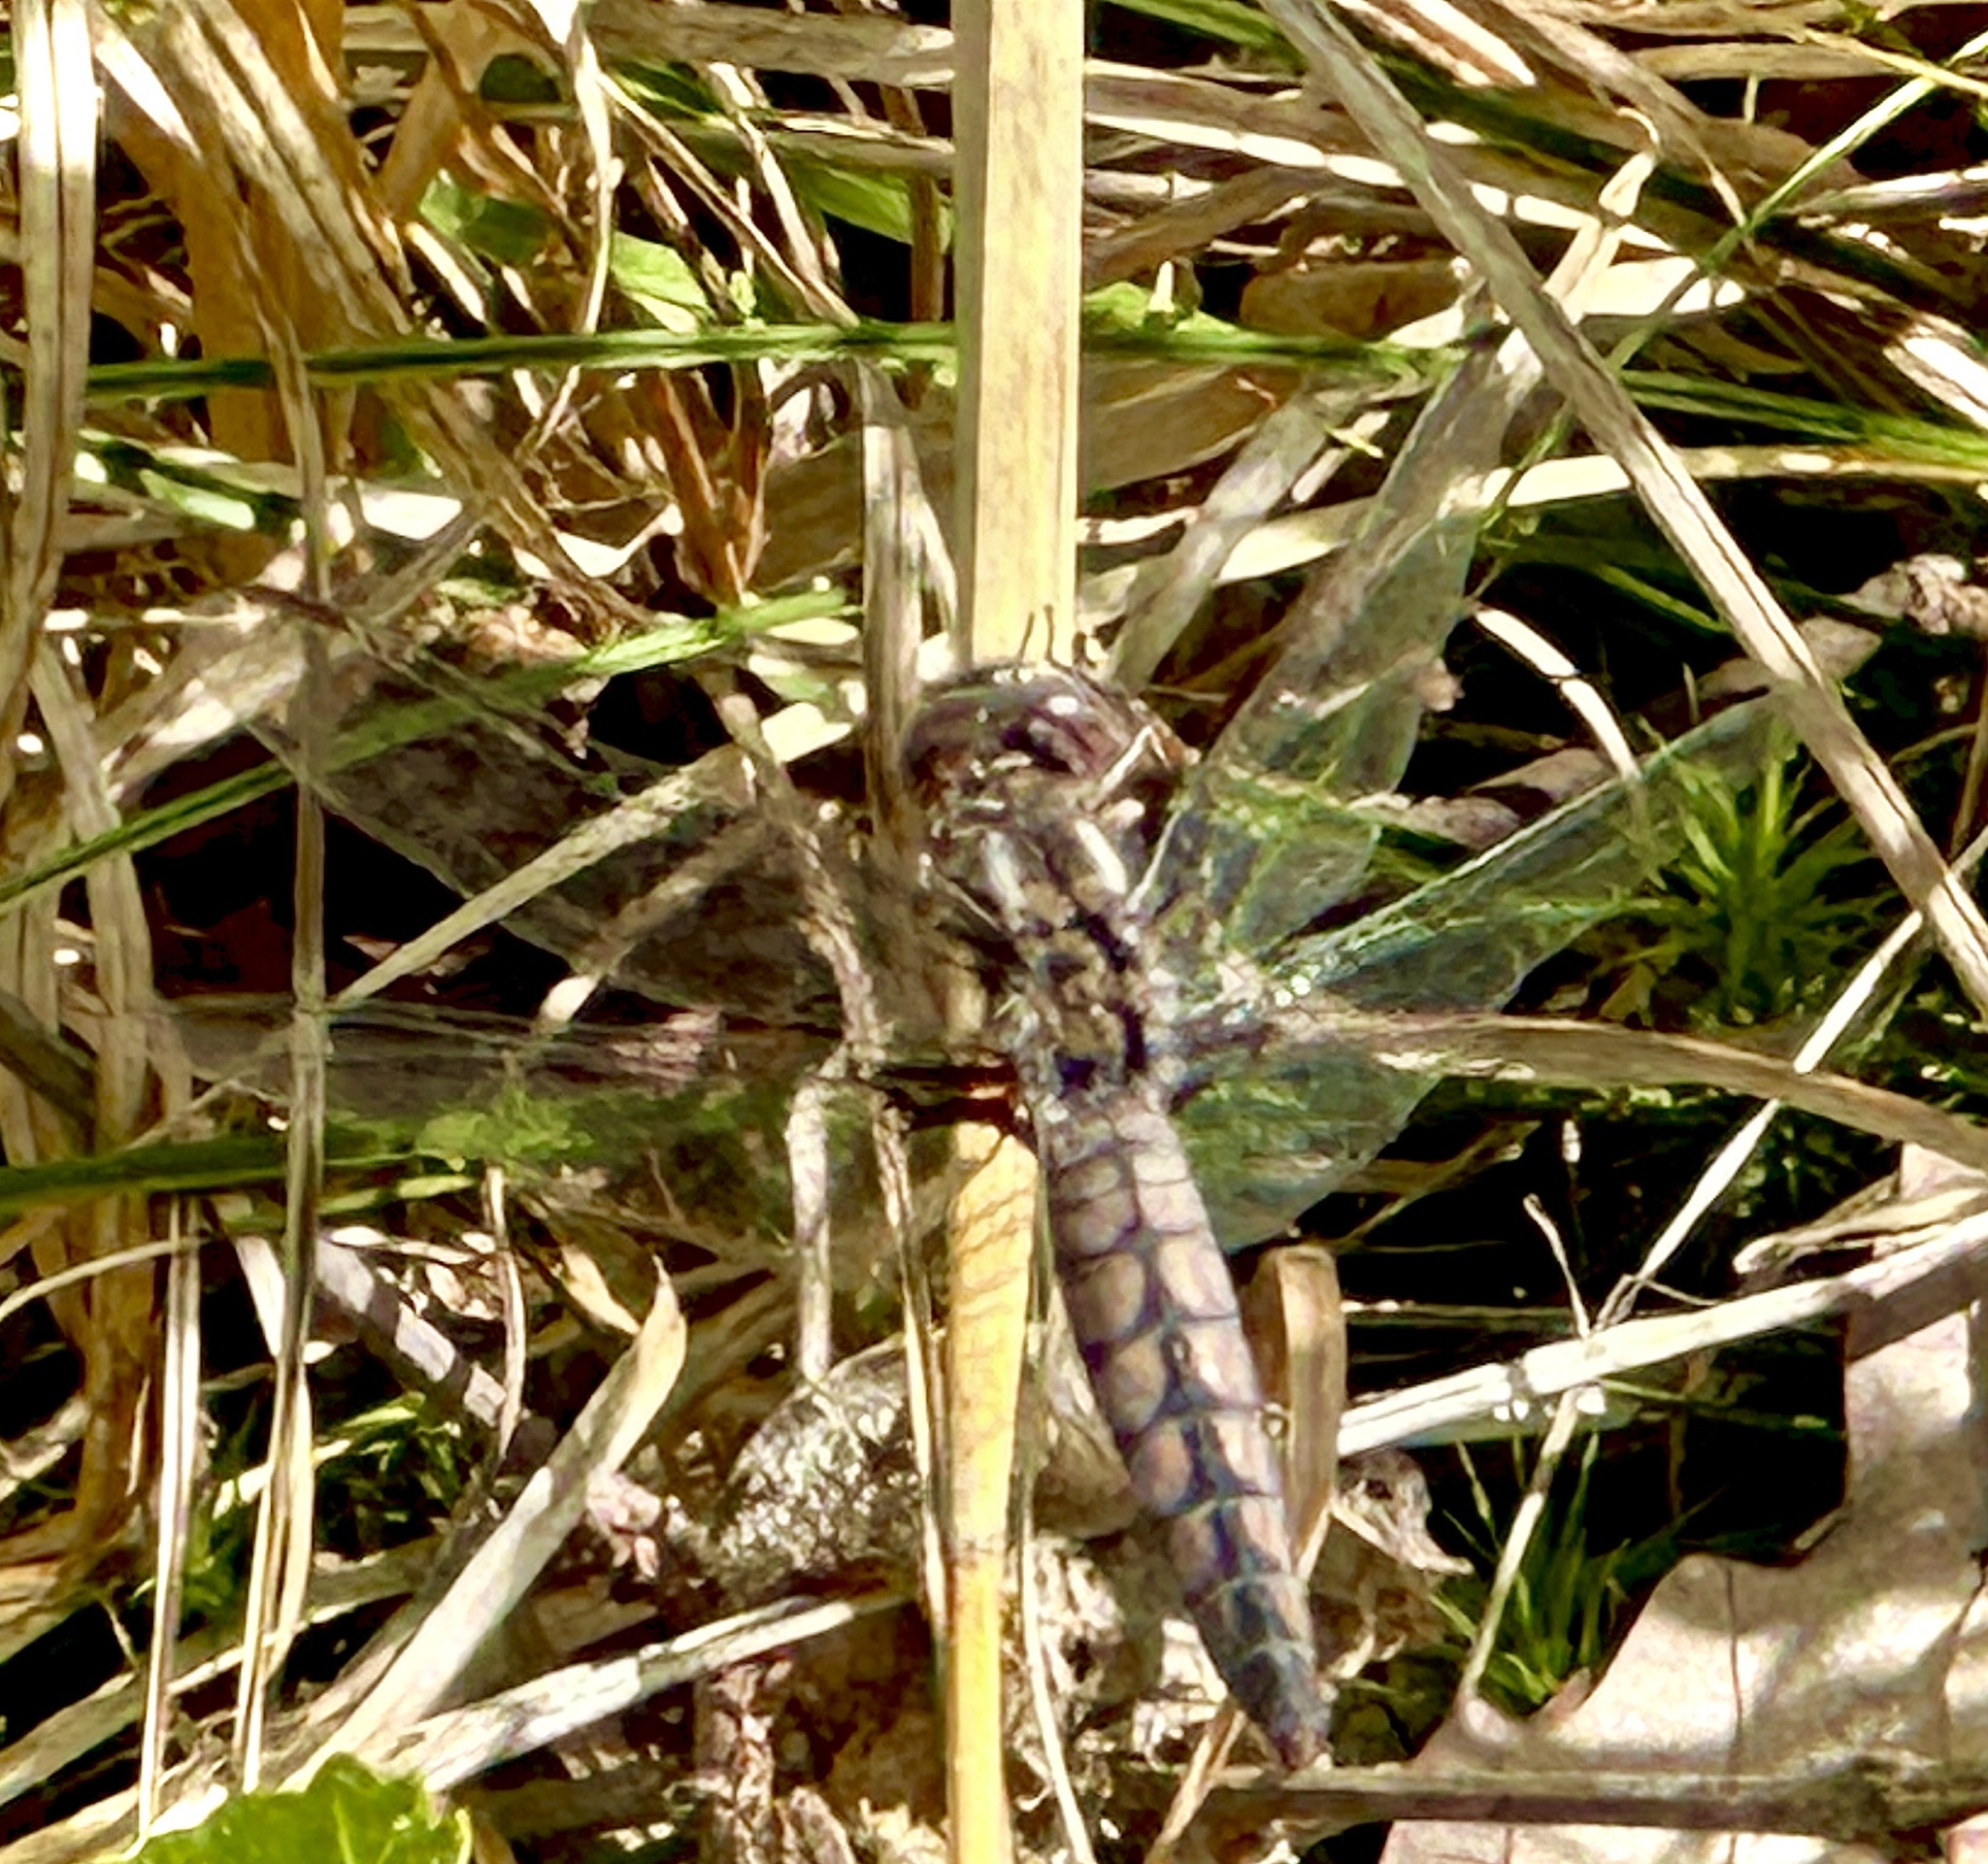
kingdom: Animalia
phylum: Arthropoda
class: Insecta
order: Odonata
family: Libellulidae
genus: Ladona
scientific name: Ladona deplanata
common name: Blue corporal
